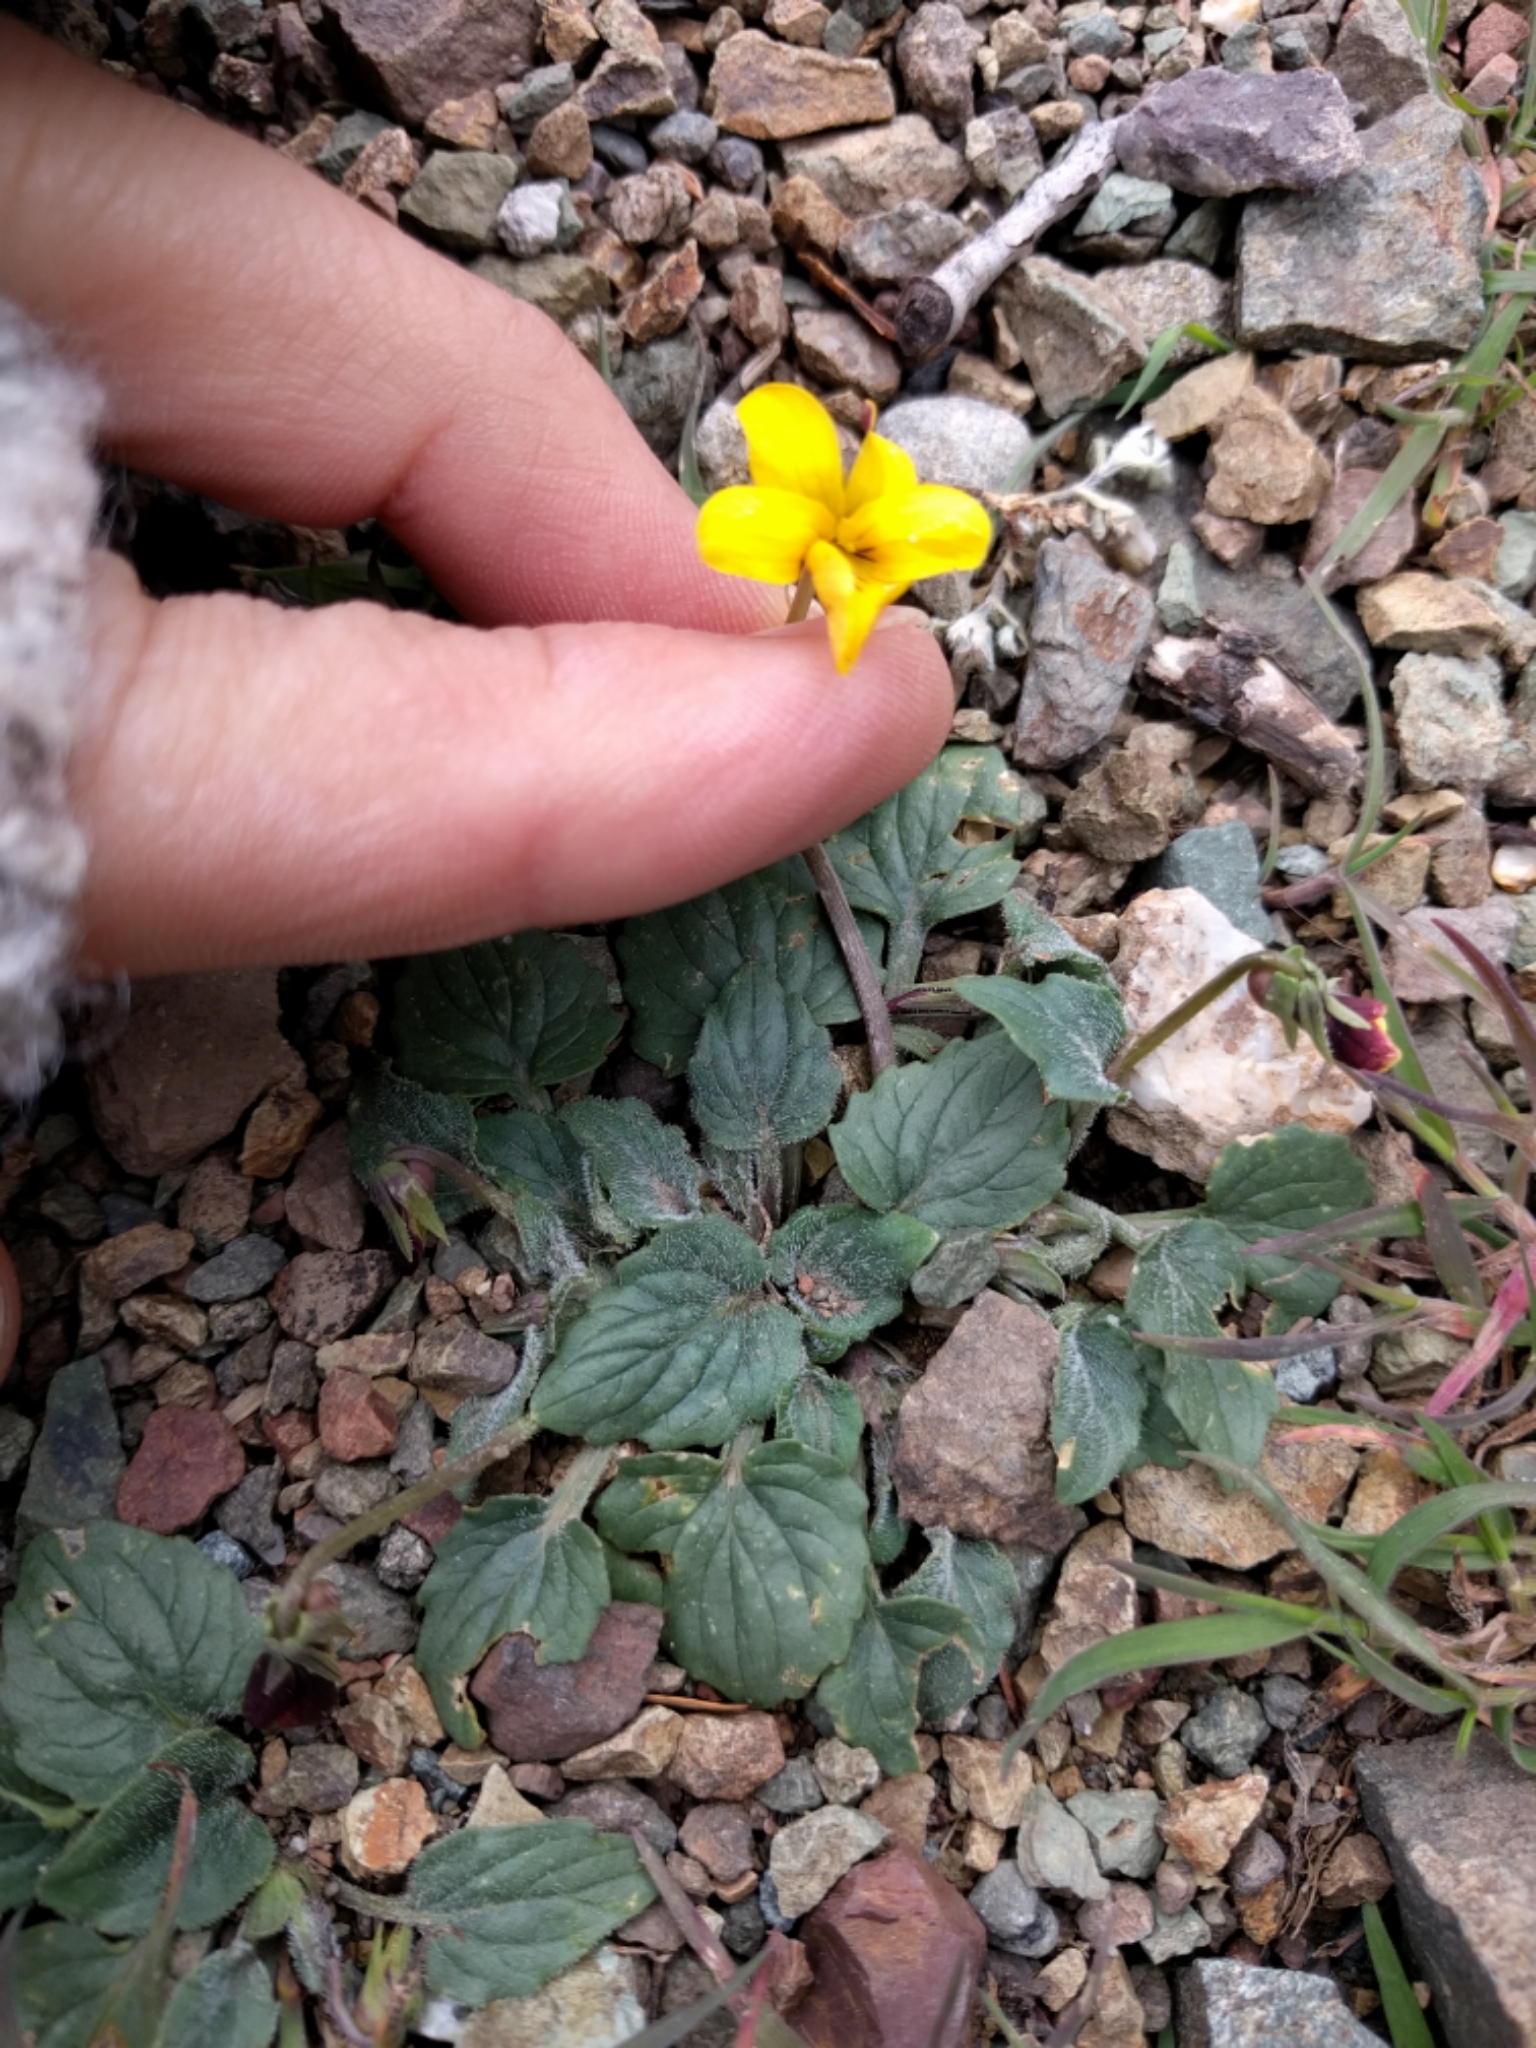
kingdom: Plantae
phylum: Tracheophyta
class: Magnoliopsida
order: Malpighiales
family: Violaceae
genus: Viola
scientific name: Viola purpurea
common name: Pine violet
